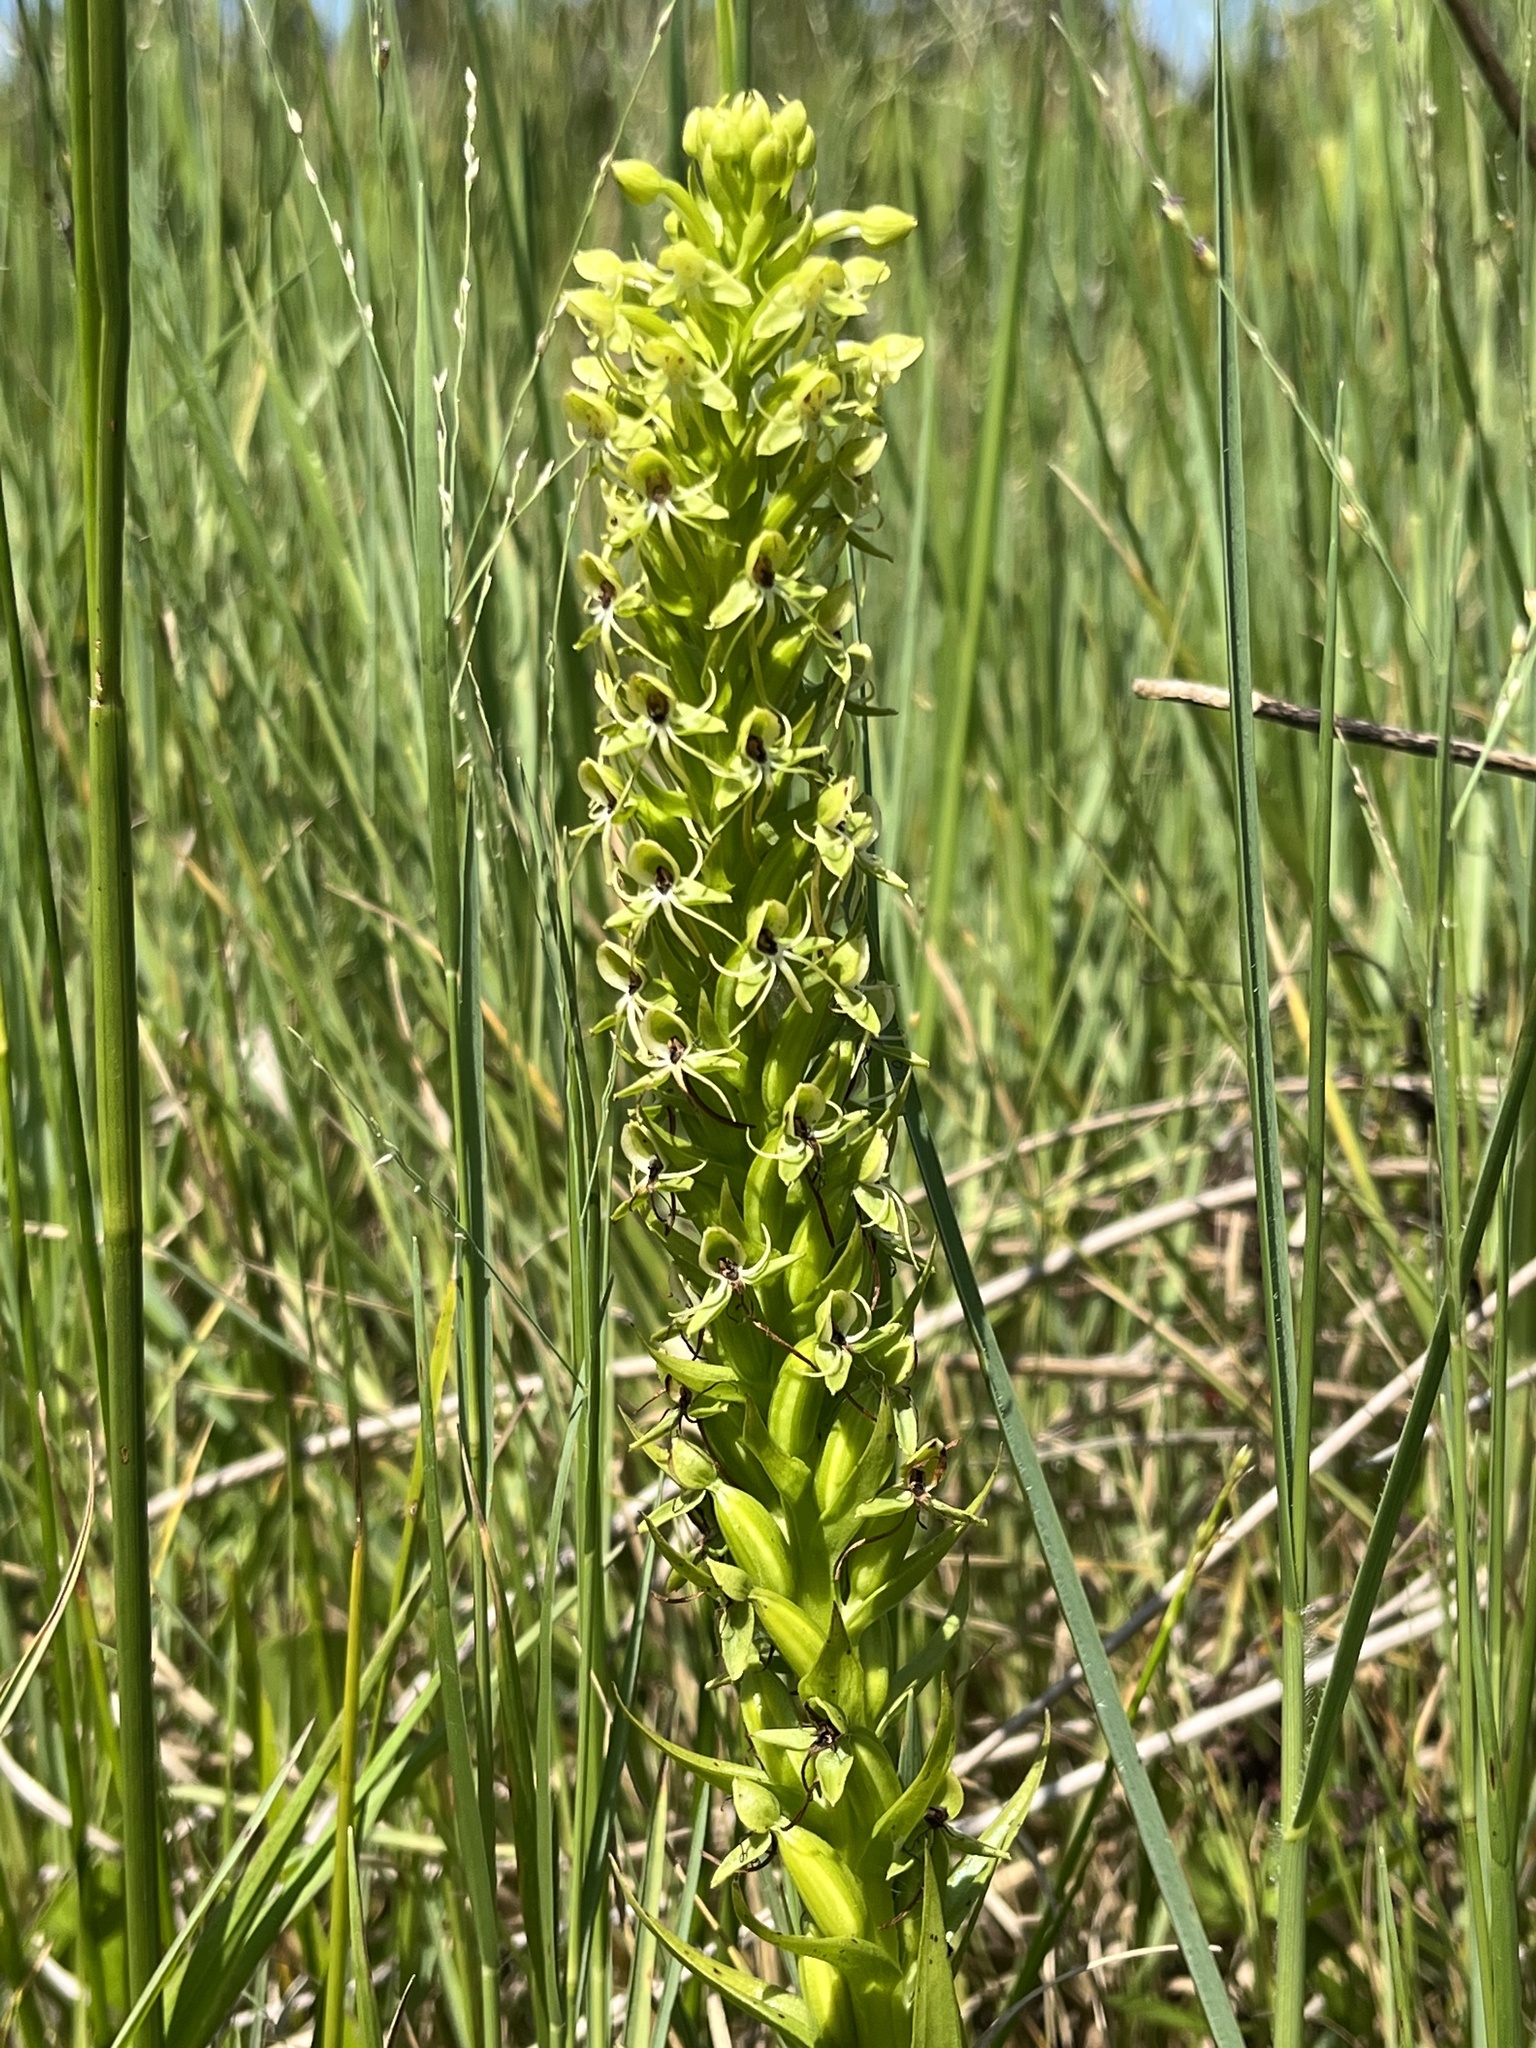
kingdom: Plantae
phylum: Tracheophyta
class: Liliopsida
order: Asparagales
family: Orchidaceae
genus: Habenaria
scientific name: Habenaria repens
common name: Water orchid
